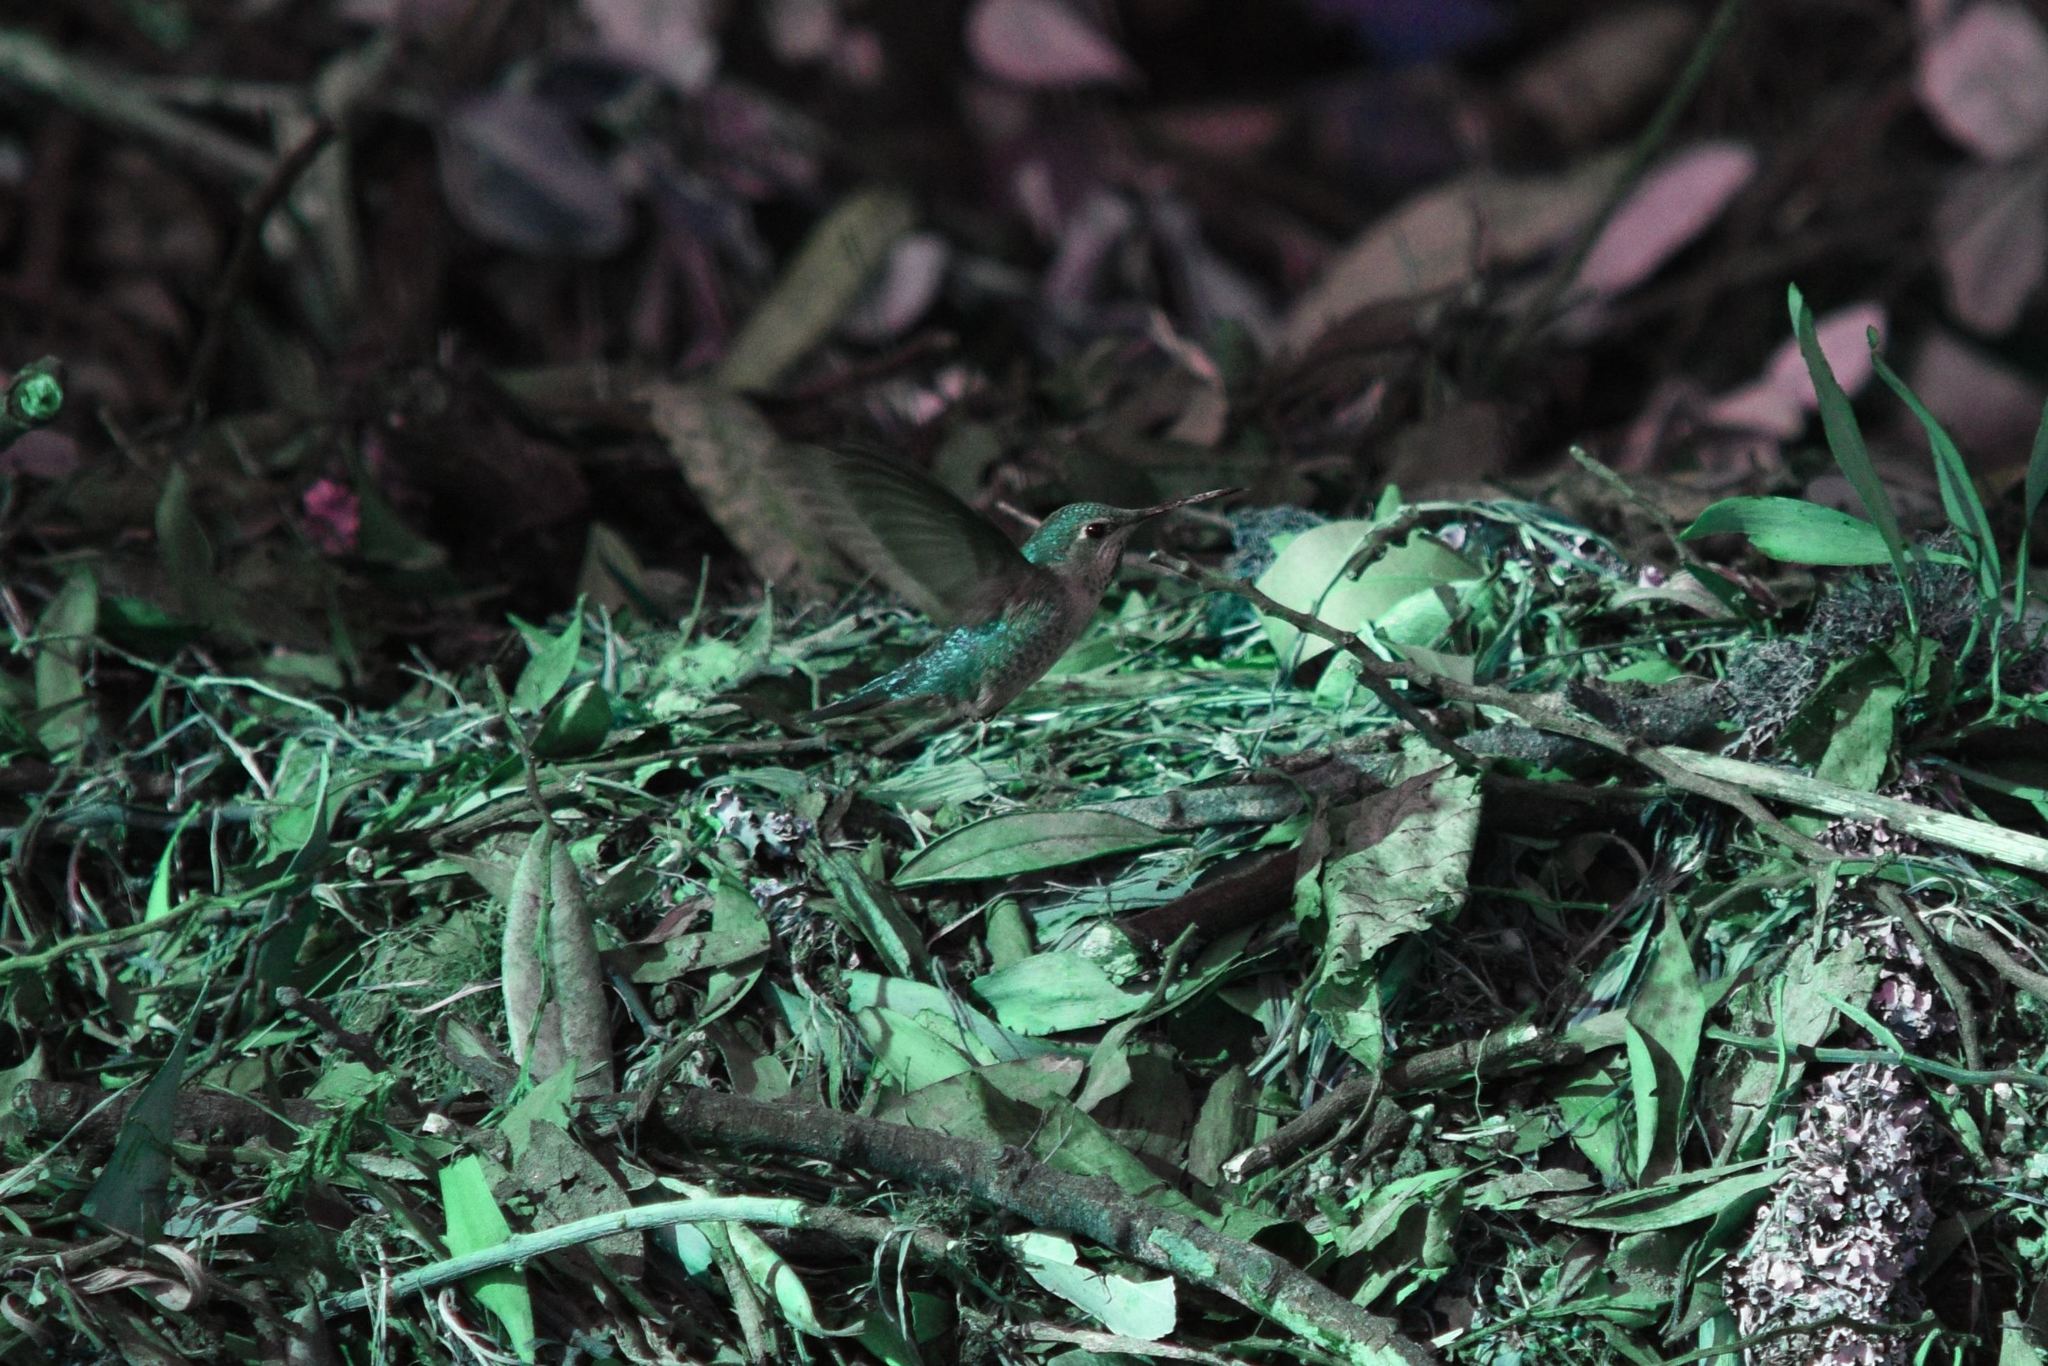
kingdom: Animalia
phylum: Chordata
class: Aves
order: Apodiformes
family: Trochilidae
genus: Calypte
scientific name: Calypte anna
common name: Anna's hummingbird
